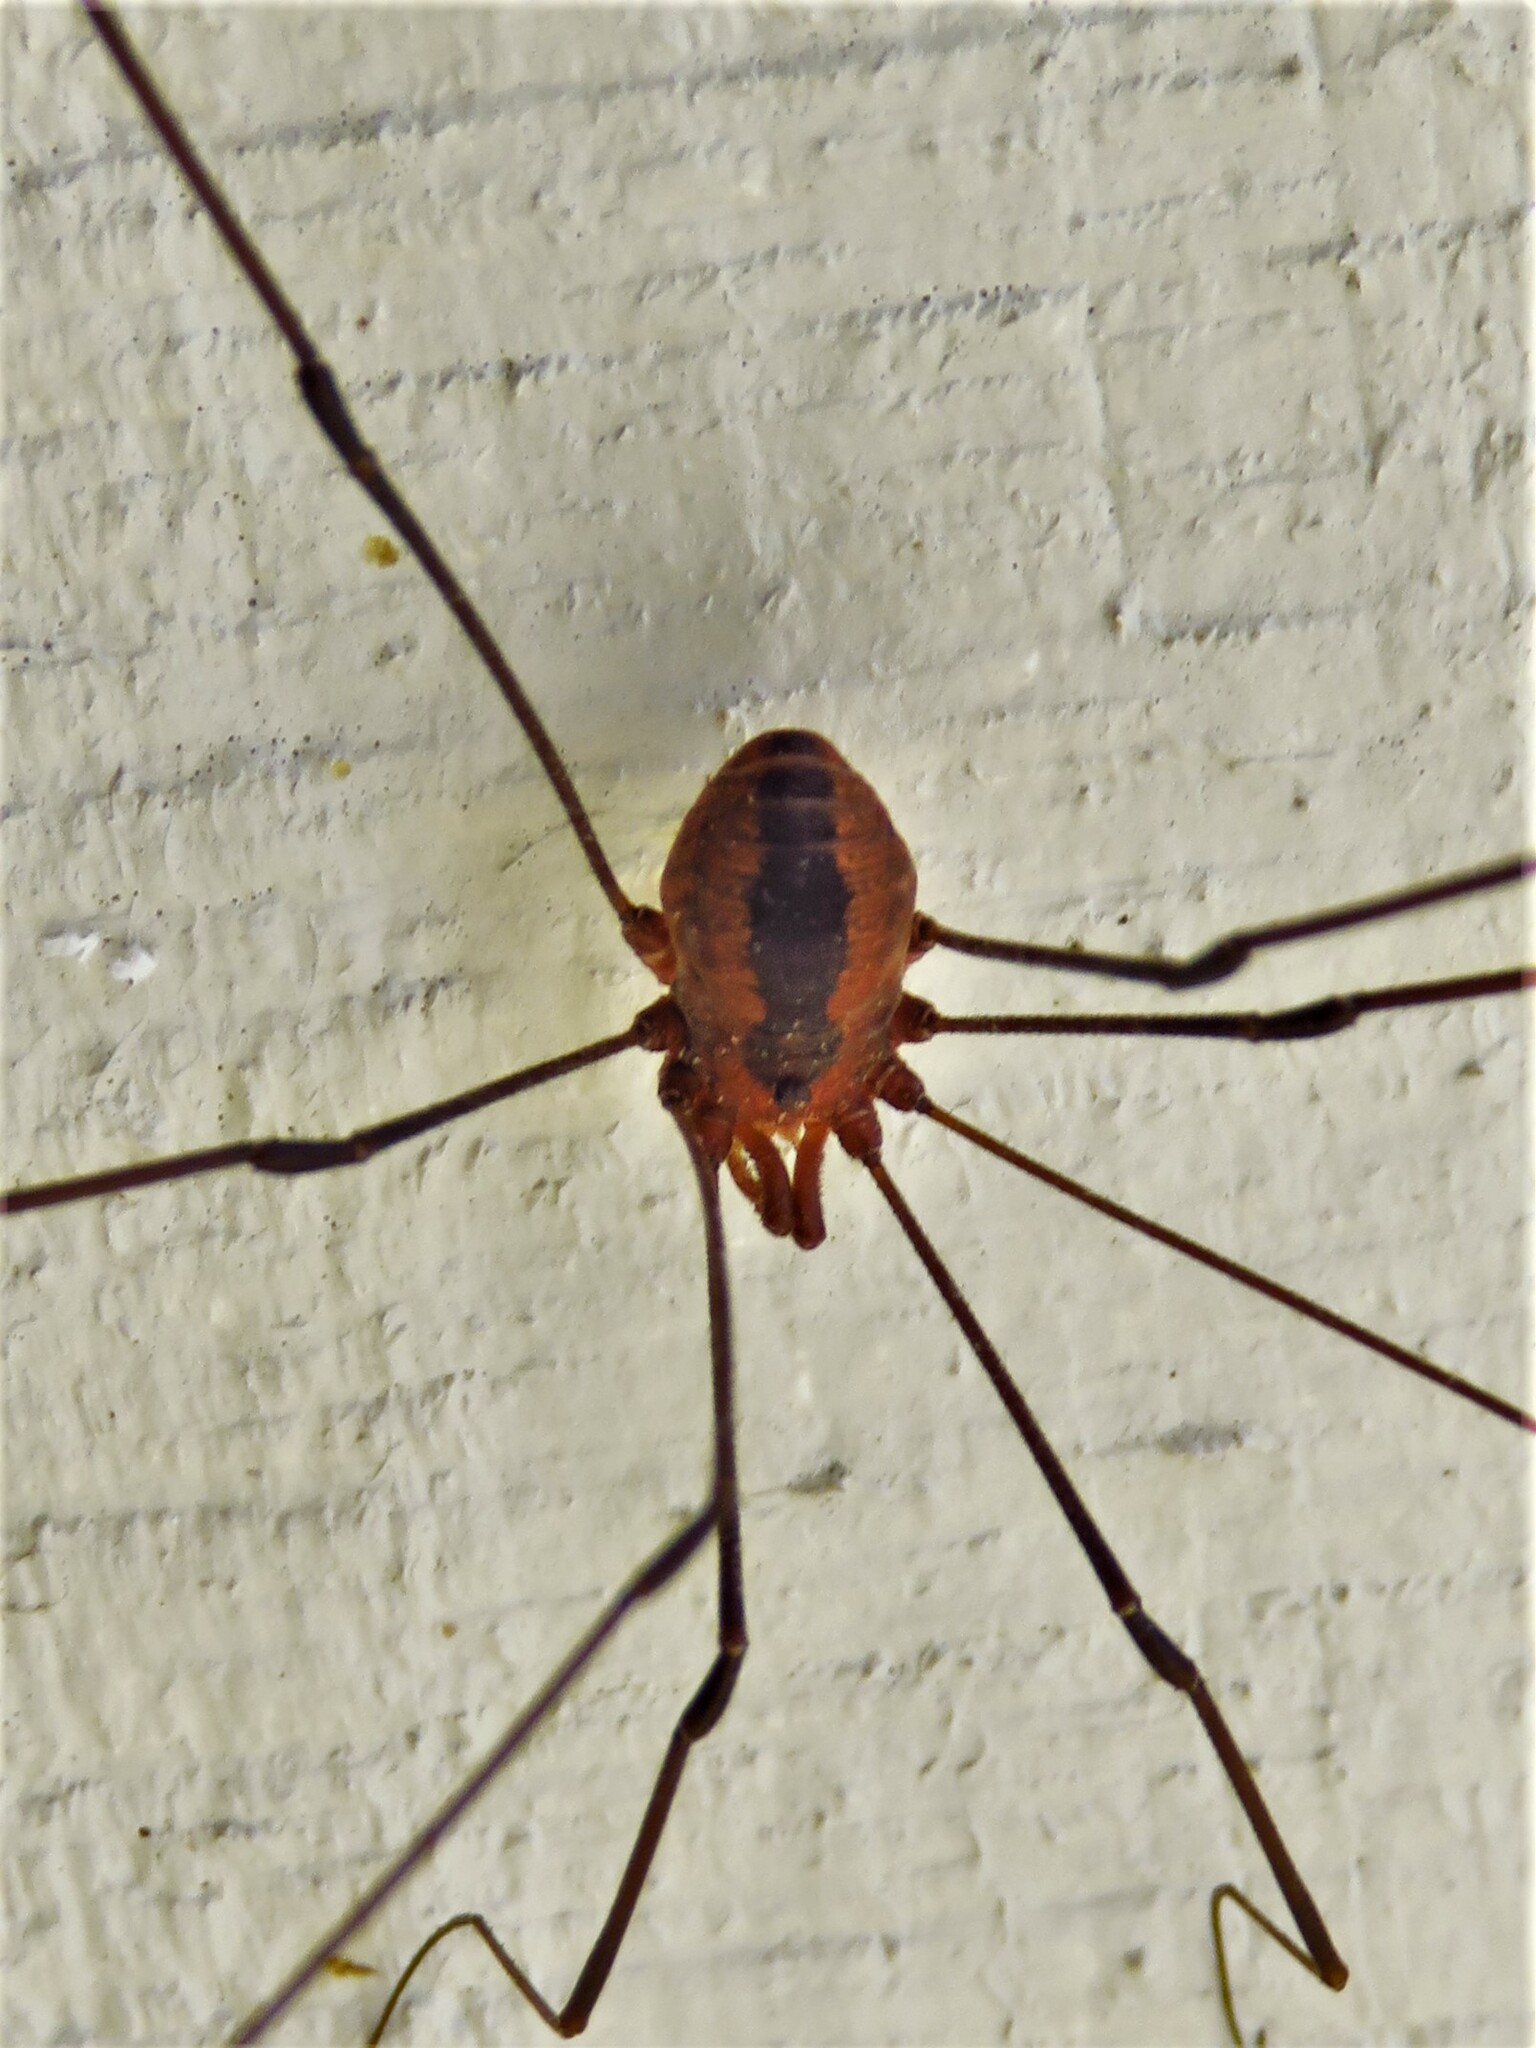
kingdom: Animalia
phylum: Arthropoda
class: Arachnida
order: Opiliones
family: Sclerosomatidae
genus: Leiobunum
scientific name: Leiobunum vittatum
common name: Eastern harvestman
